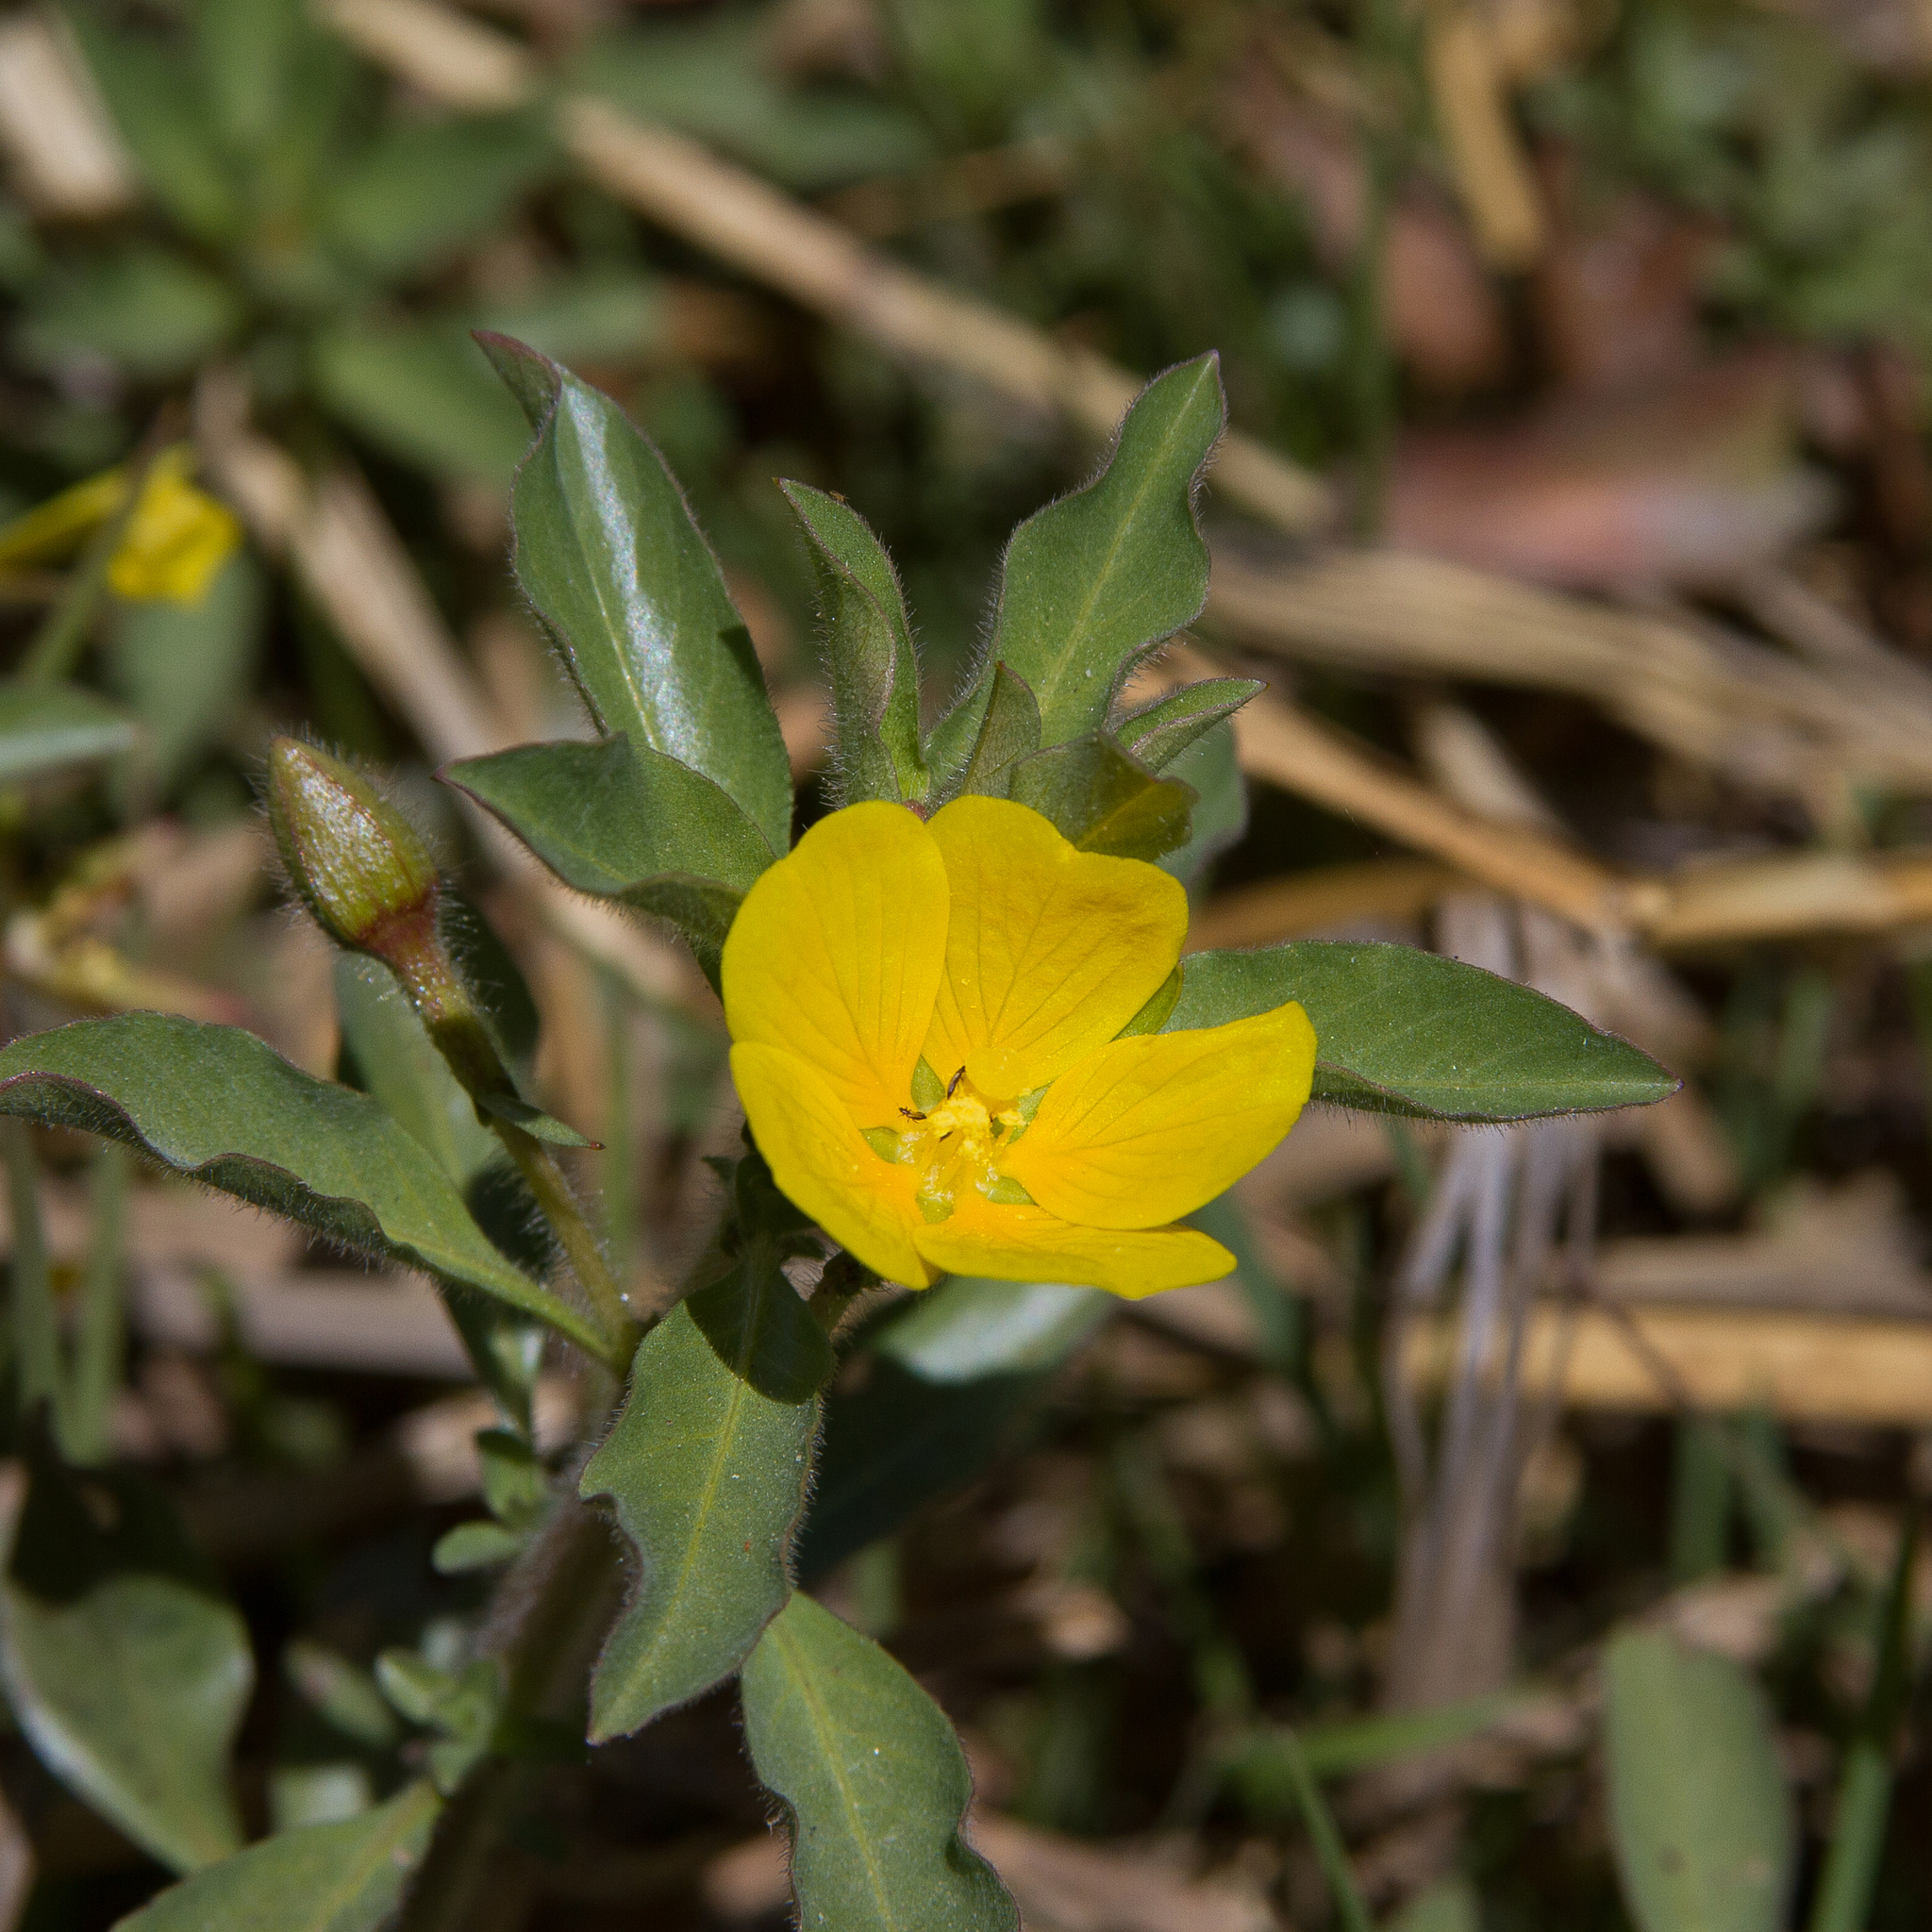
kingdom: Plantae
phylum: Tracheophyta
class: Magnoliopsida
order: Myrtales
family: Onagraceae
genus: Ludwigia
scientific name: Ludwigia peploides
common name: Floating primrose-willow
